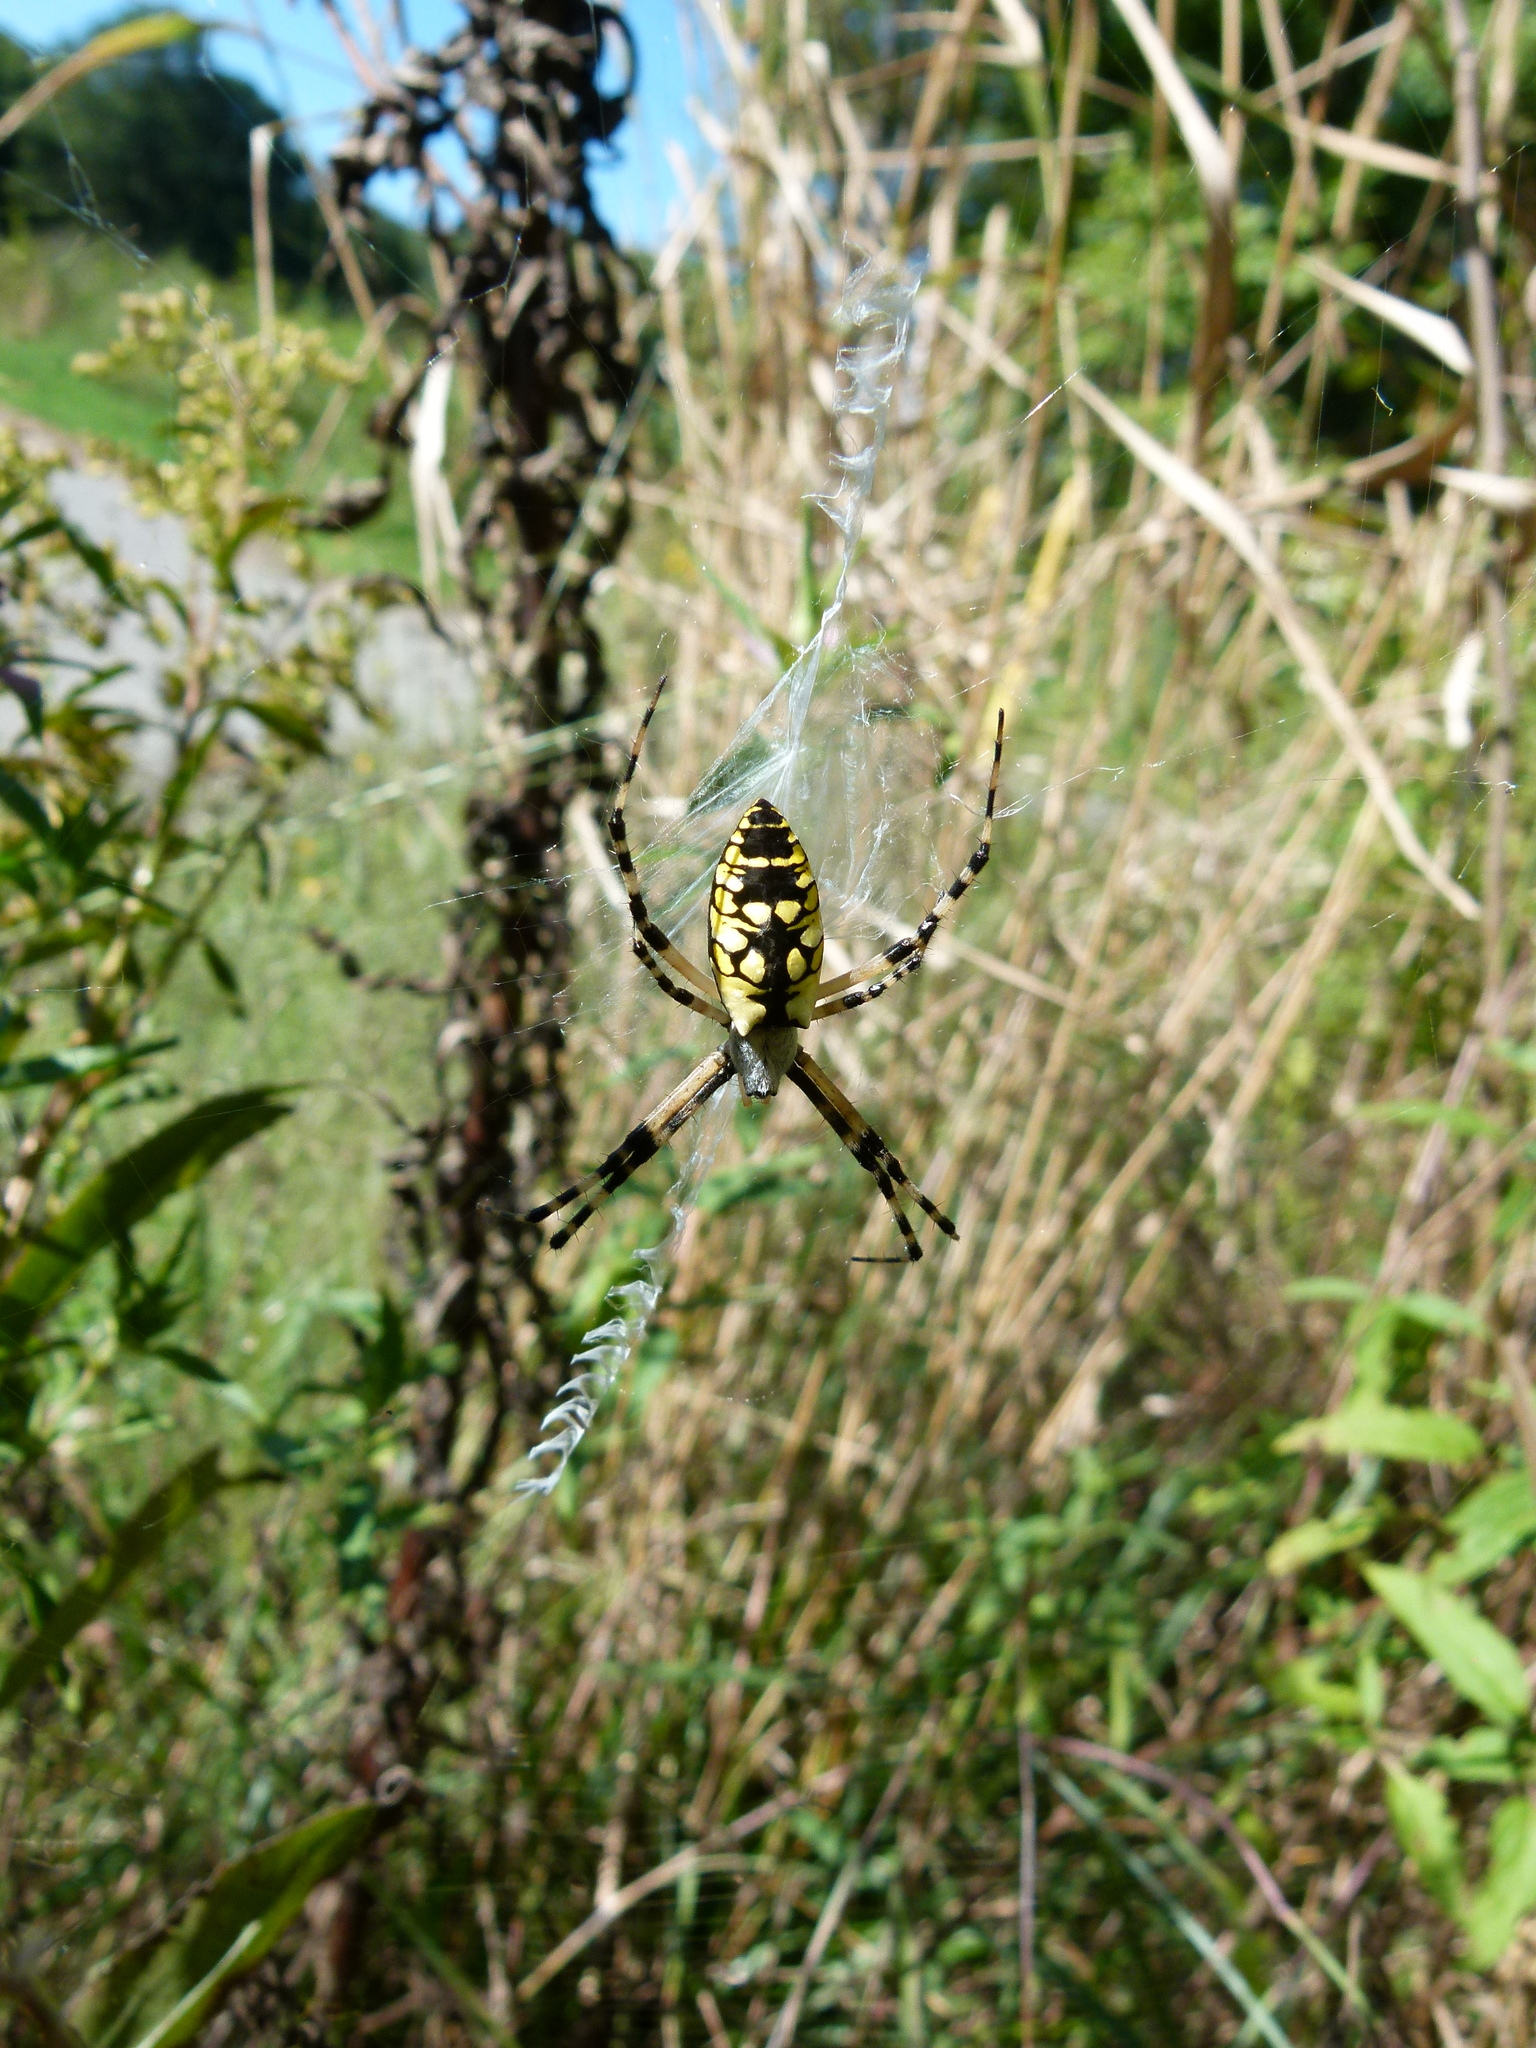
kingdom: Animalia
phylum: Arthropoda
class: Arachnida
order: Araneae
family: Araneidae
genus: Argiope
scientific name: Argiope aurantia
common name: Orb weavers
